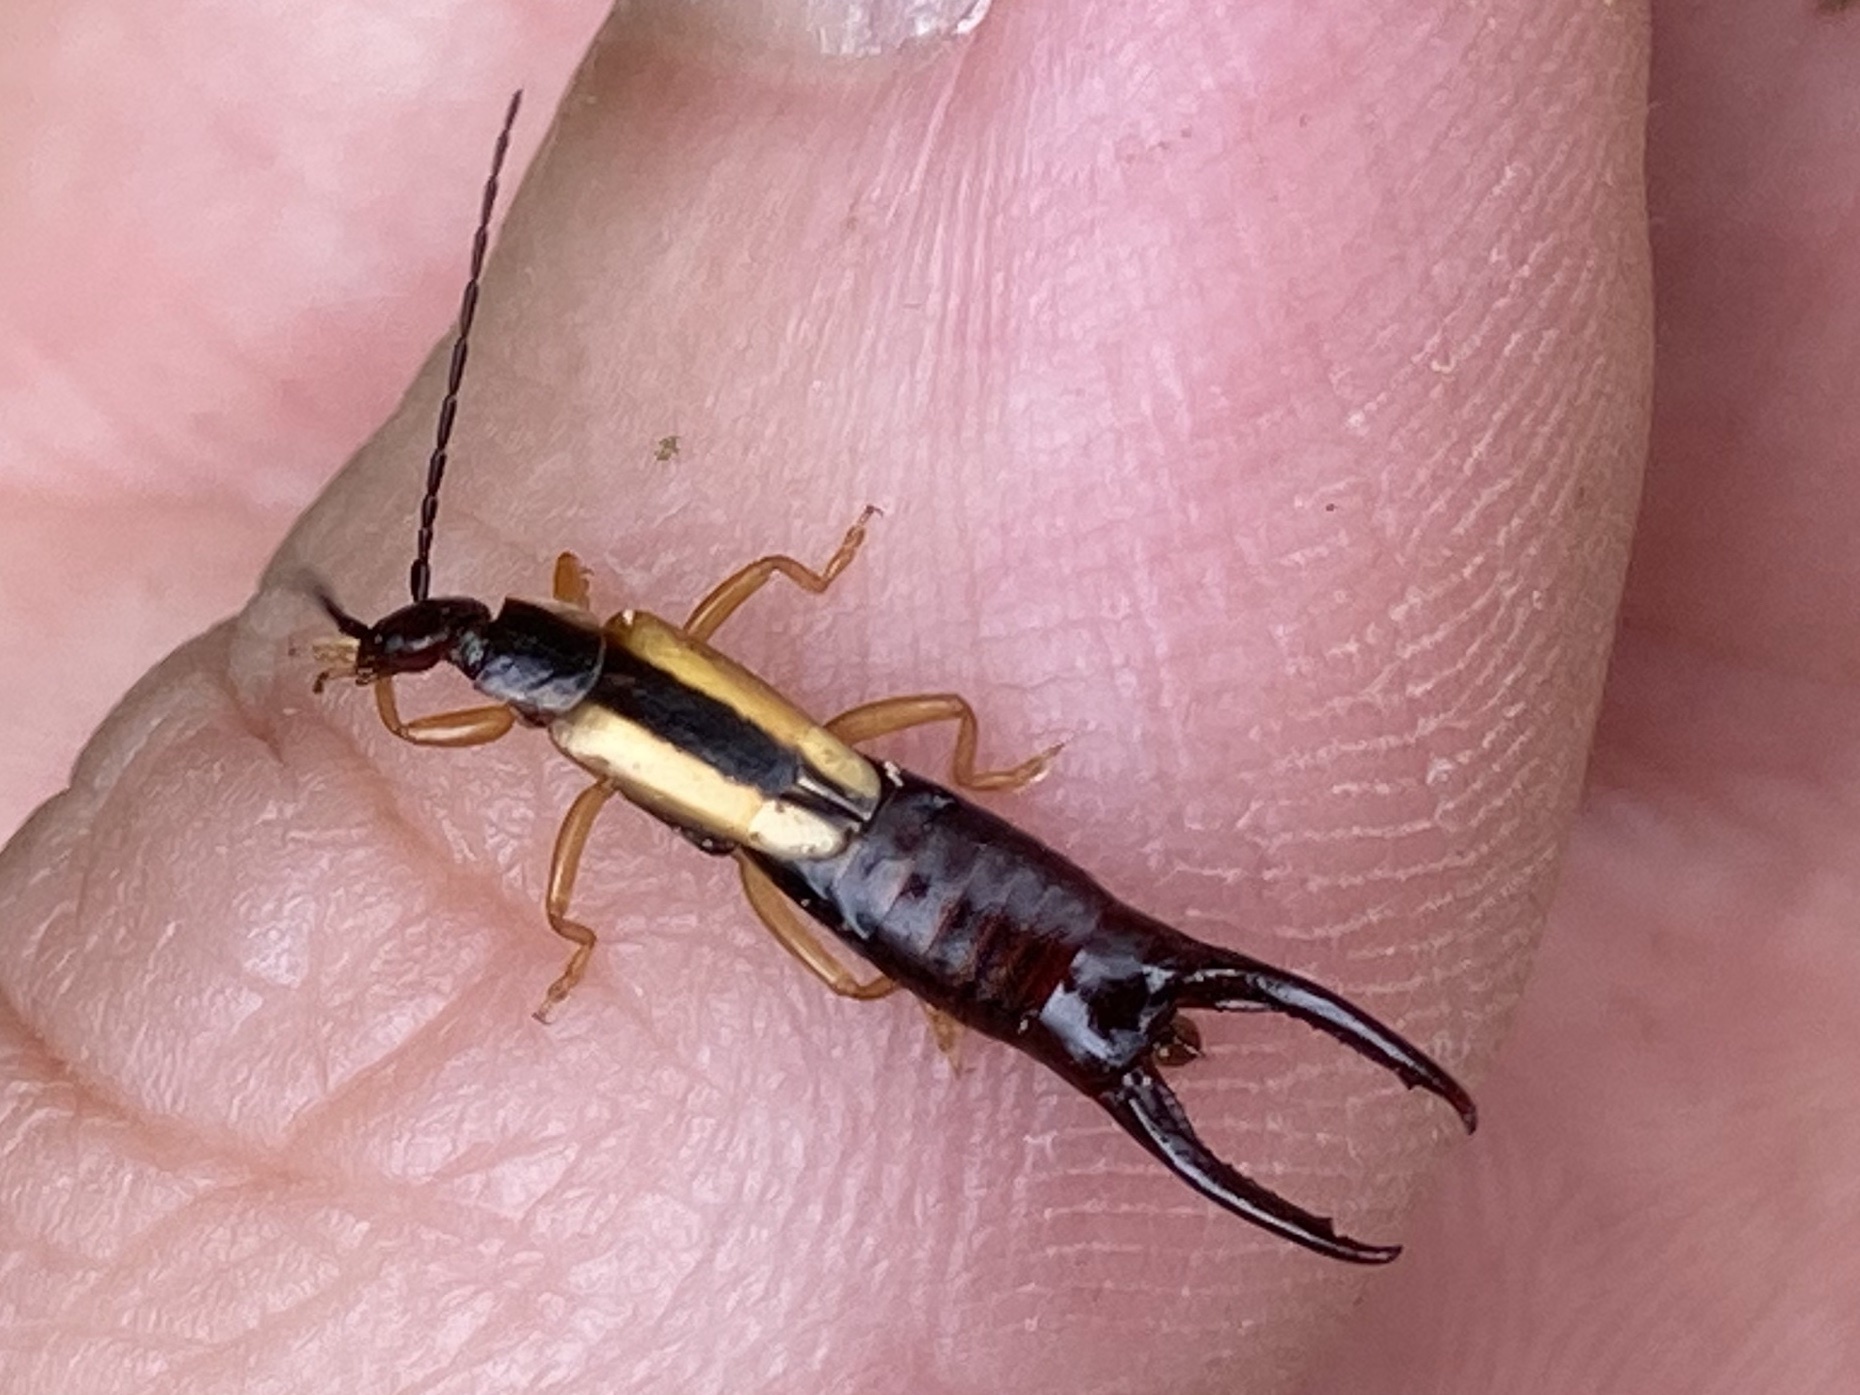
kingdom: Animalia
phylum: Arthropoda
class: Insecta
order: Dermaptera
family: Forficulidae
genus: Doru
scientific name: Doru taeniatum
